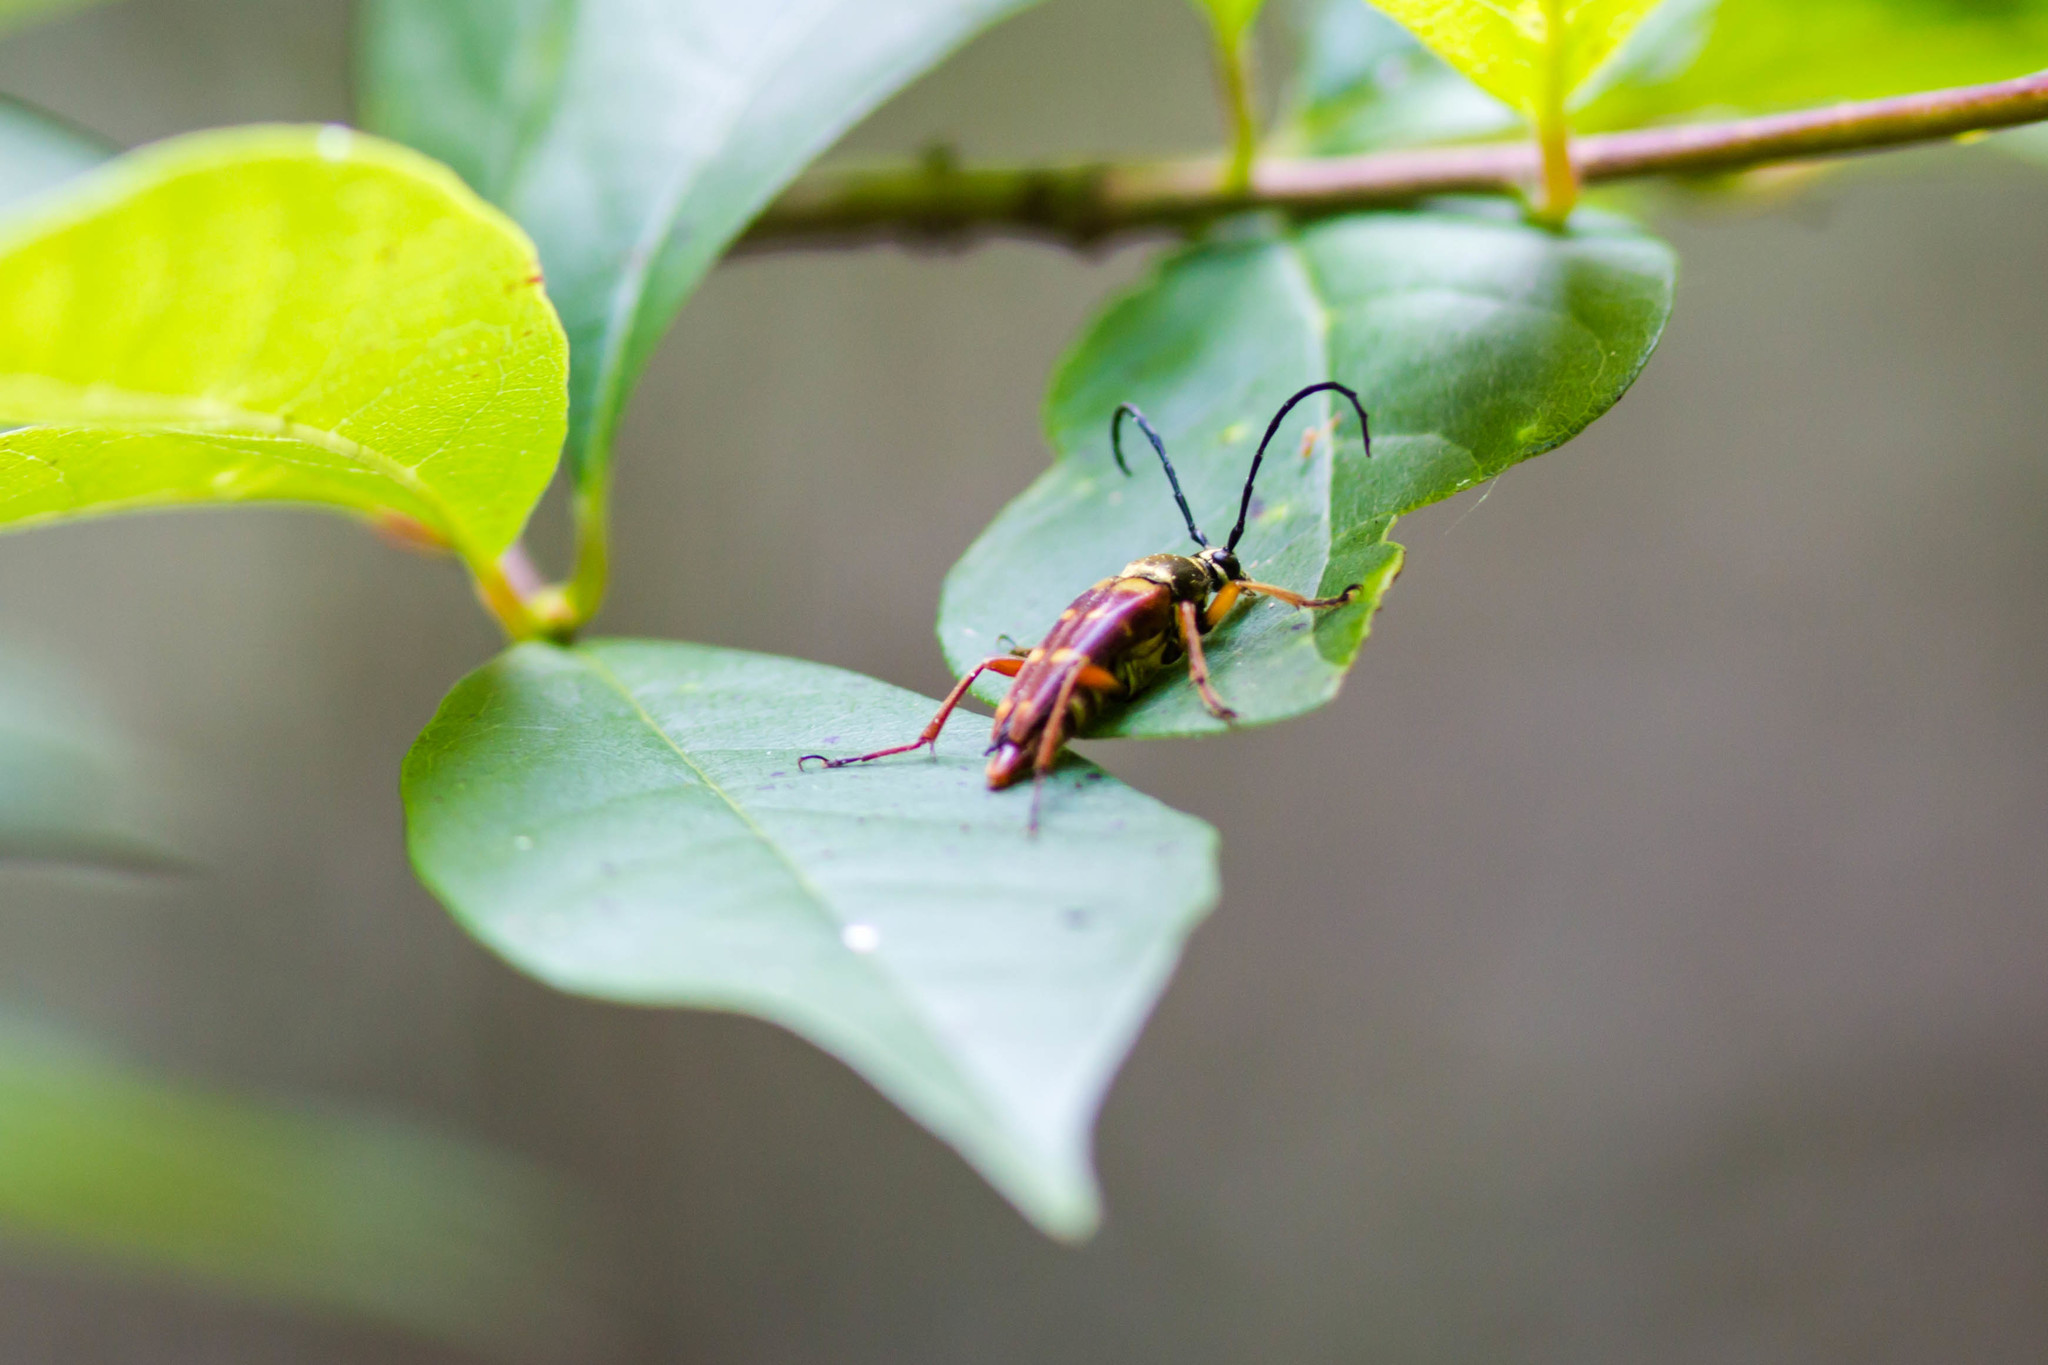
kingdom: Animalia
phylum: Arthropoda
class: Insecta
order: Coleoptera
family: Cerambycidae
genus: Typocerus
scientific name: Typocerus velutinus
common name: Banded longhorn beetle
